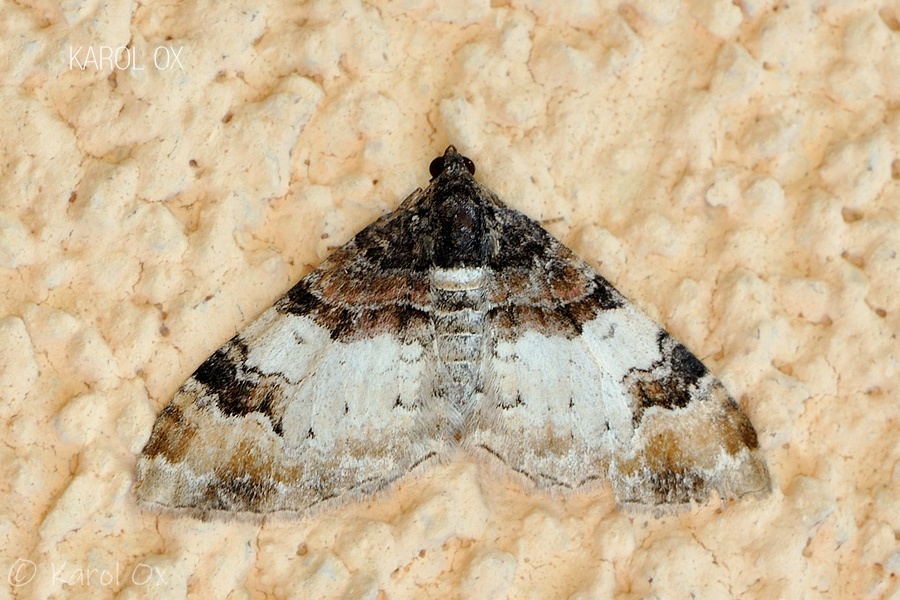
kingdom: Animalia
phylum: Arthropoda
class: Insecta
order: Lepidoptera
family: Geometridae
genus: Catarhoe
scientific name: Catarhoe cuculata
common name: Royal mantle
